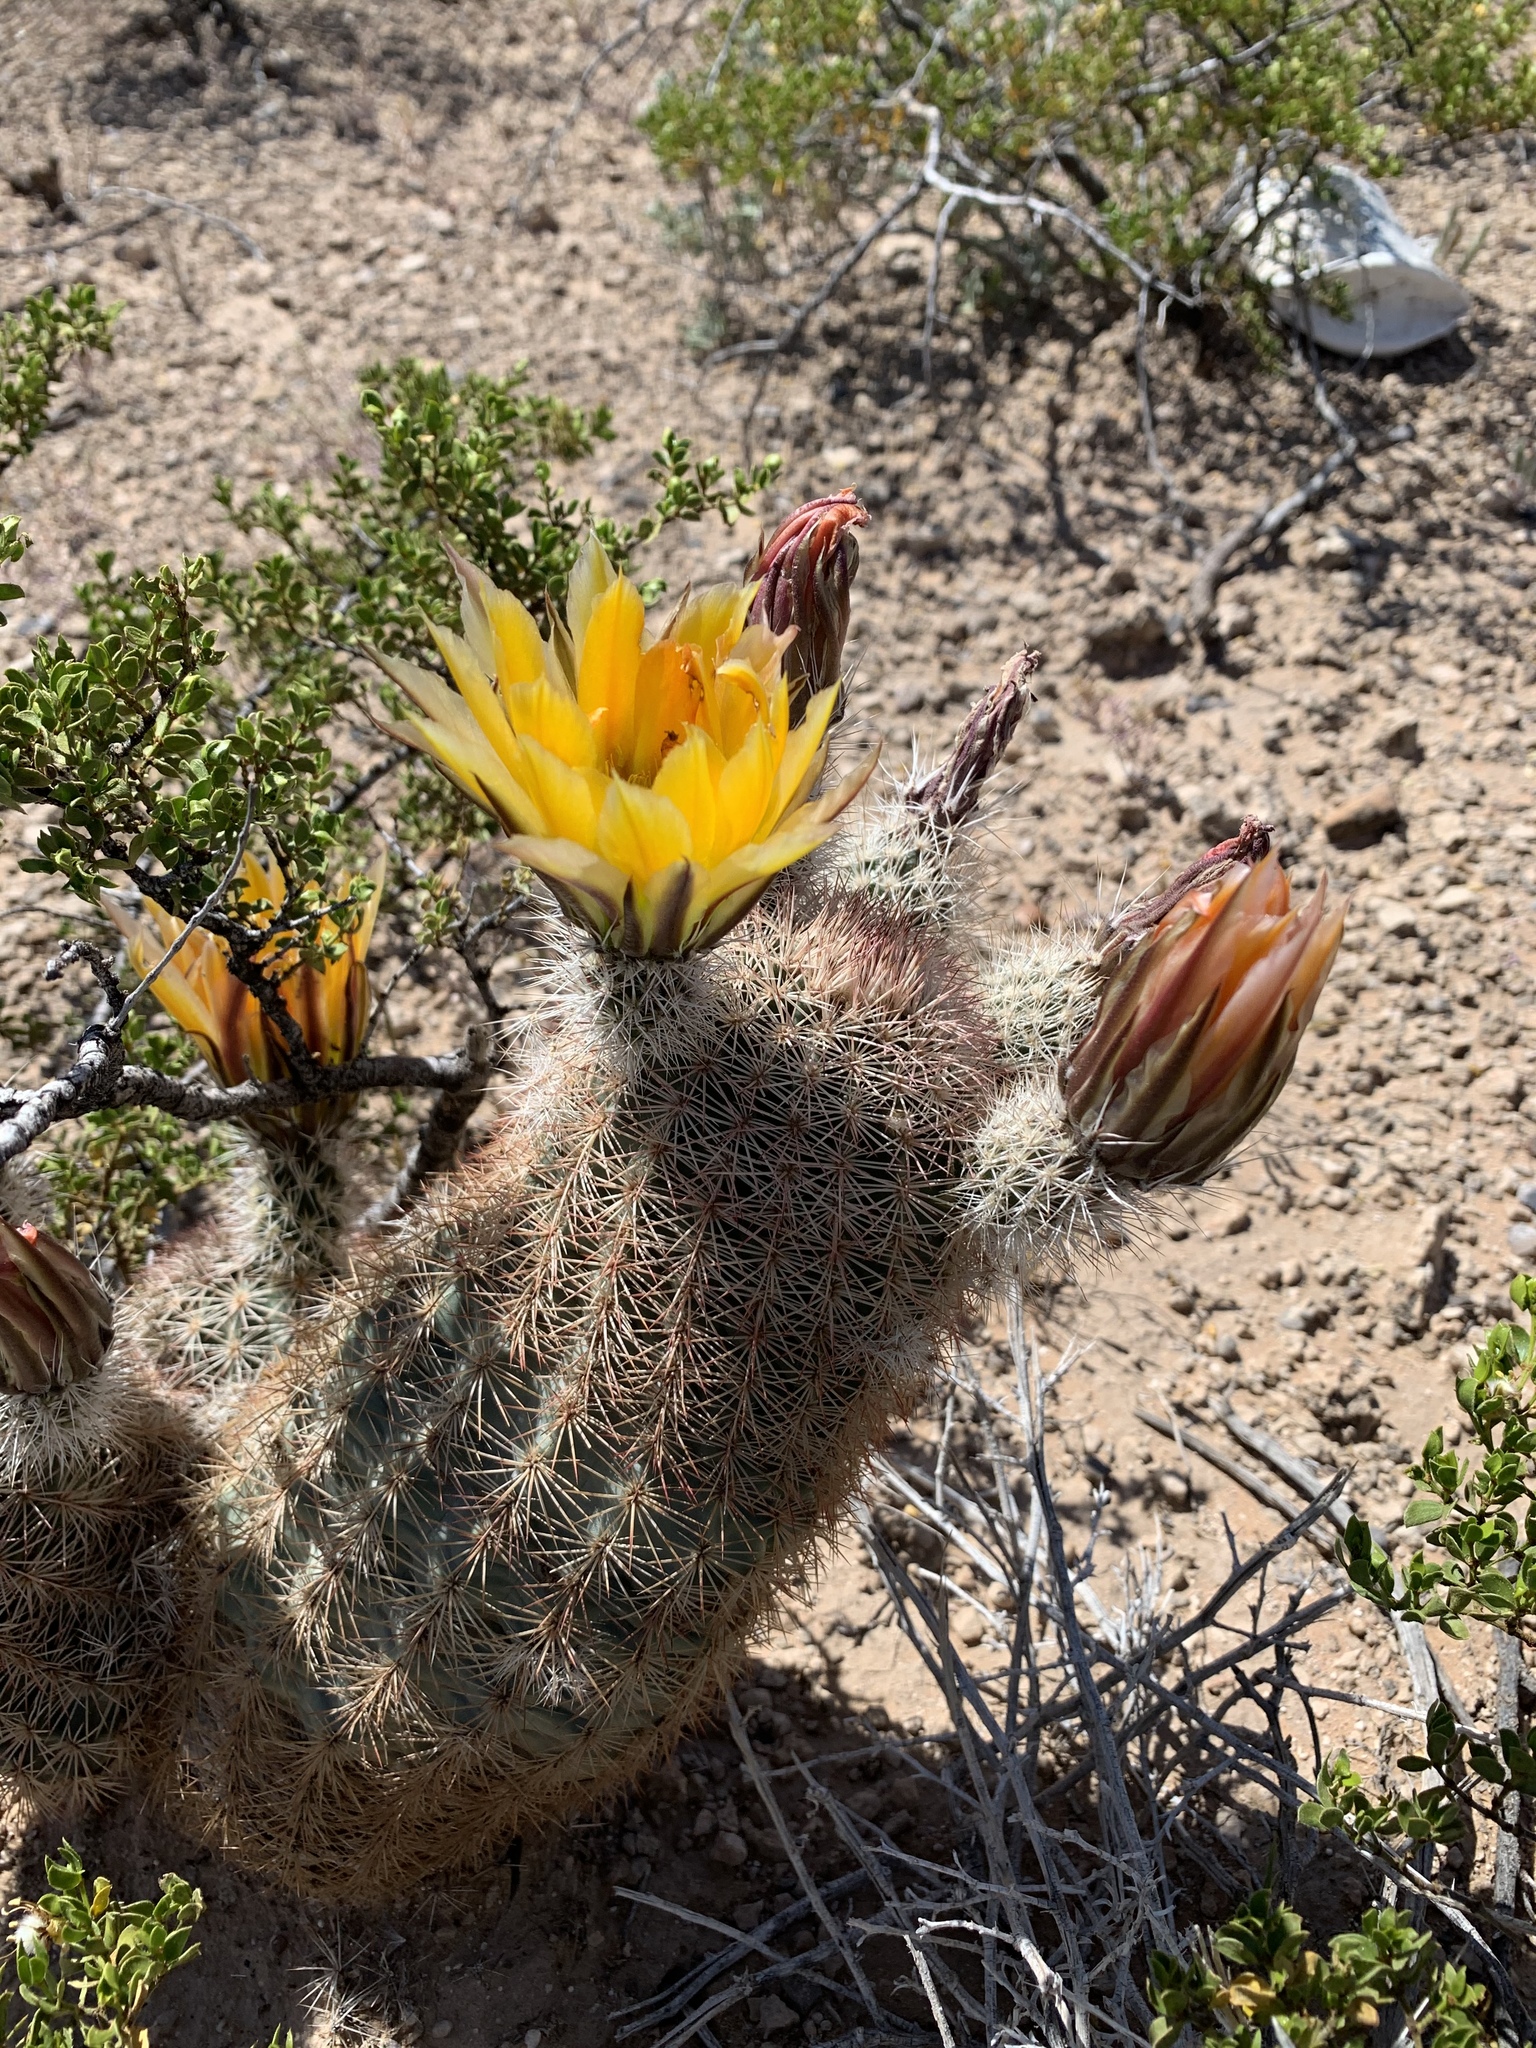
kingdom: Plantae
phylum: Tracheophyta
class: Magnoliopsida
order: Caryophyllales
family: Cactaceae
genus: Echinocereus
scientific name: Echinocereus dasyacanthus
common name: Spiny hedgehog cactus
